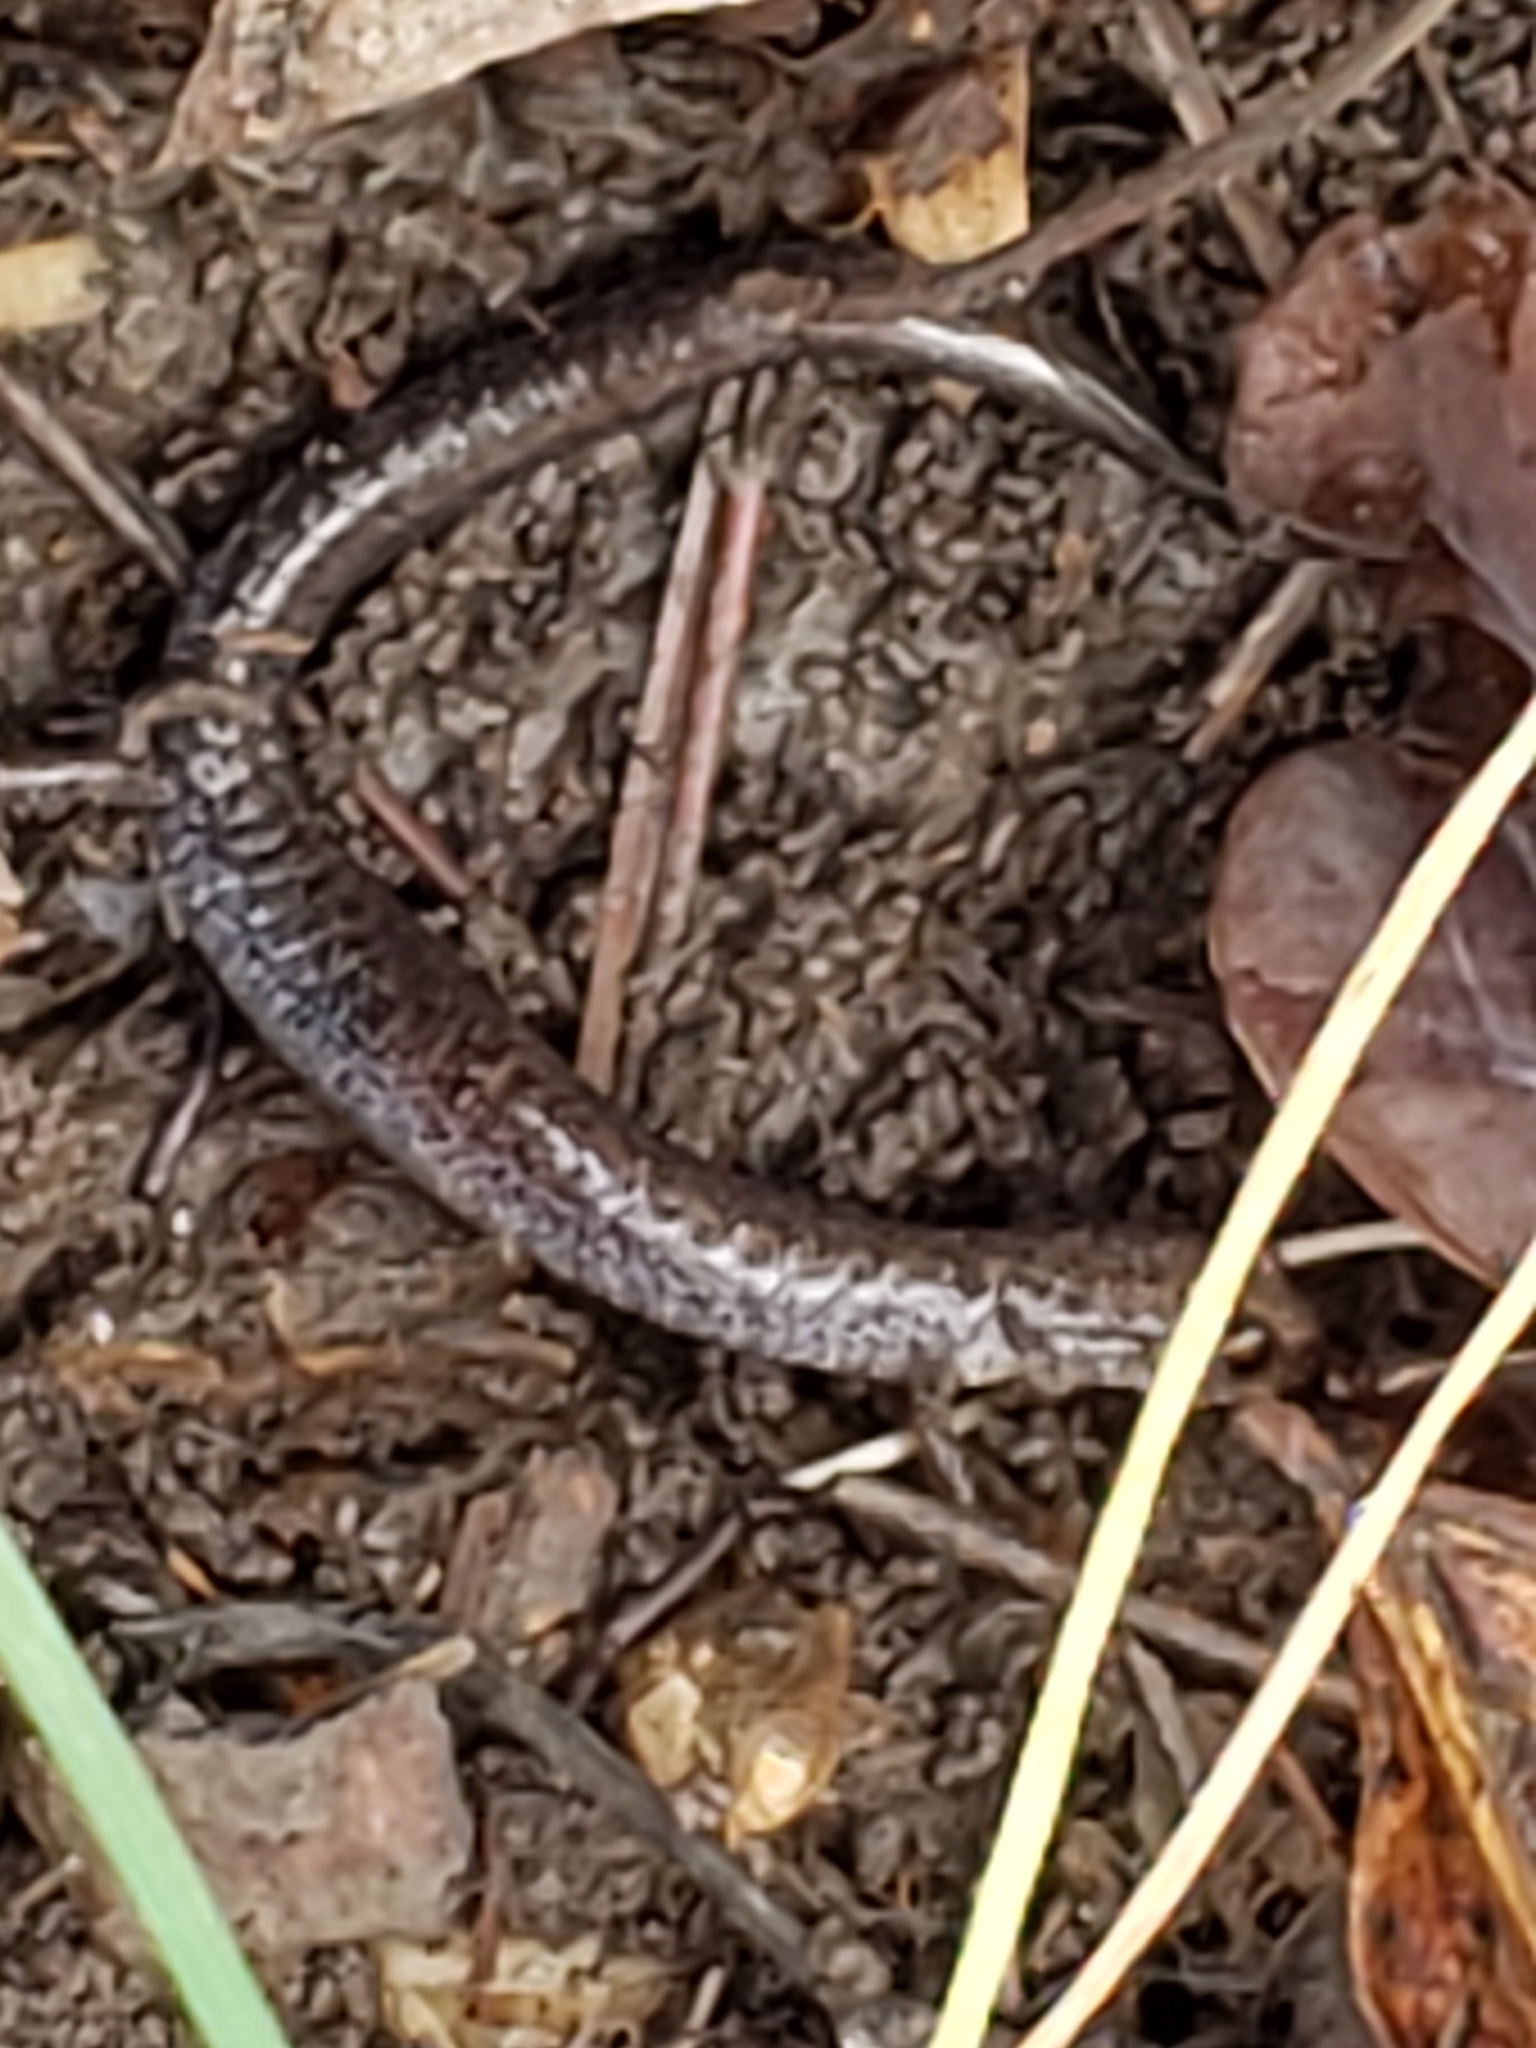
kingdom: Animalia
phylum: Chordata
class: Amphibia
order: Caudata
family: Plethodontidae
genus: Plethodon
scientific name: Plethodon cinereus
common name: Redback salamander
